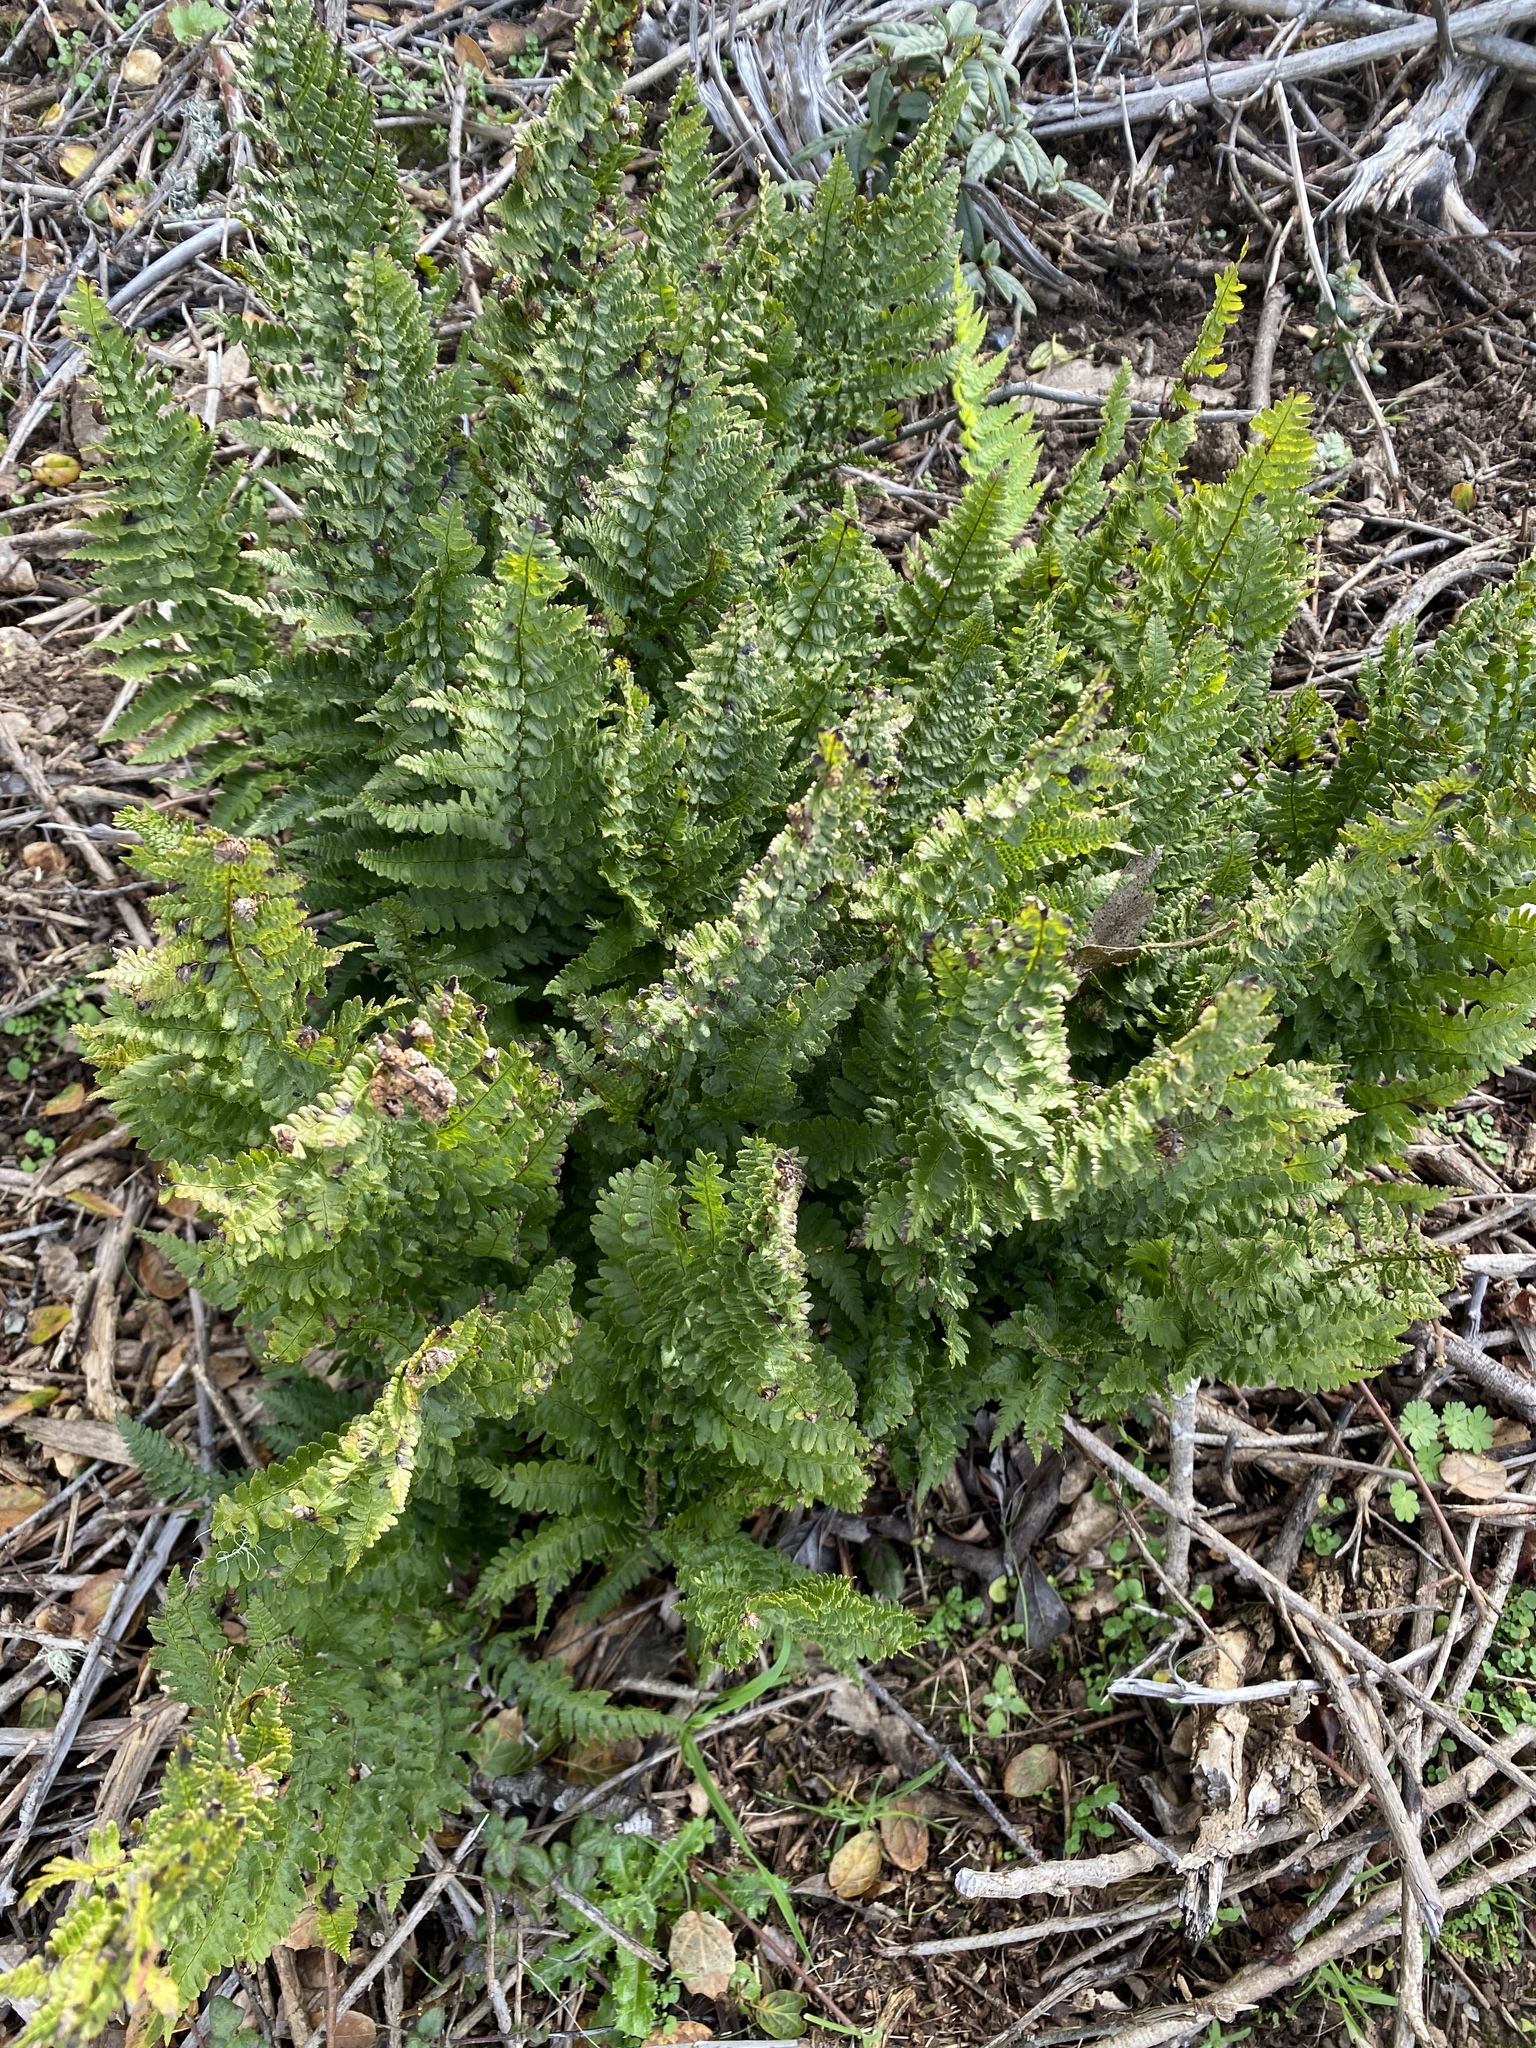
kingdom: Plantae
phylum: Tracheophyta
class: Polypodiopsida
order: Polypodiales
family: Dryopteridaceae
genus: Dryopteris
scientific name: Dryopteris arguta
